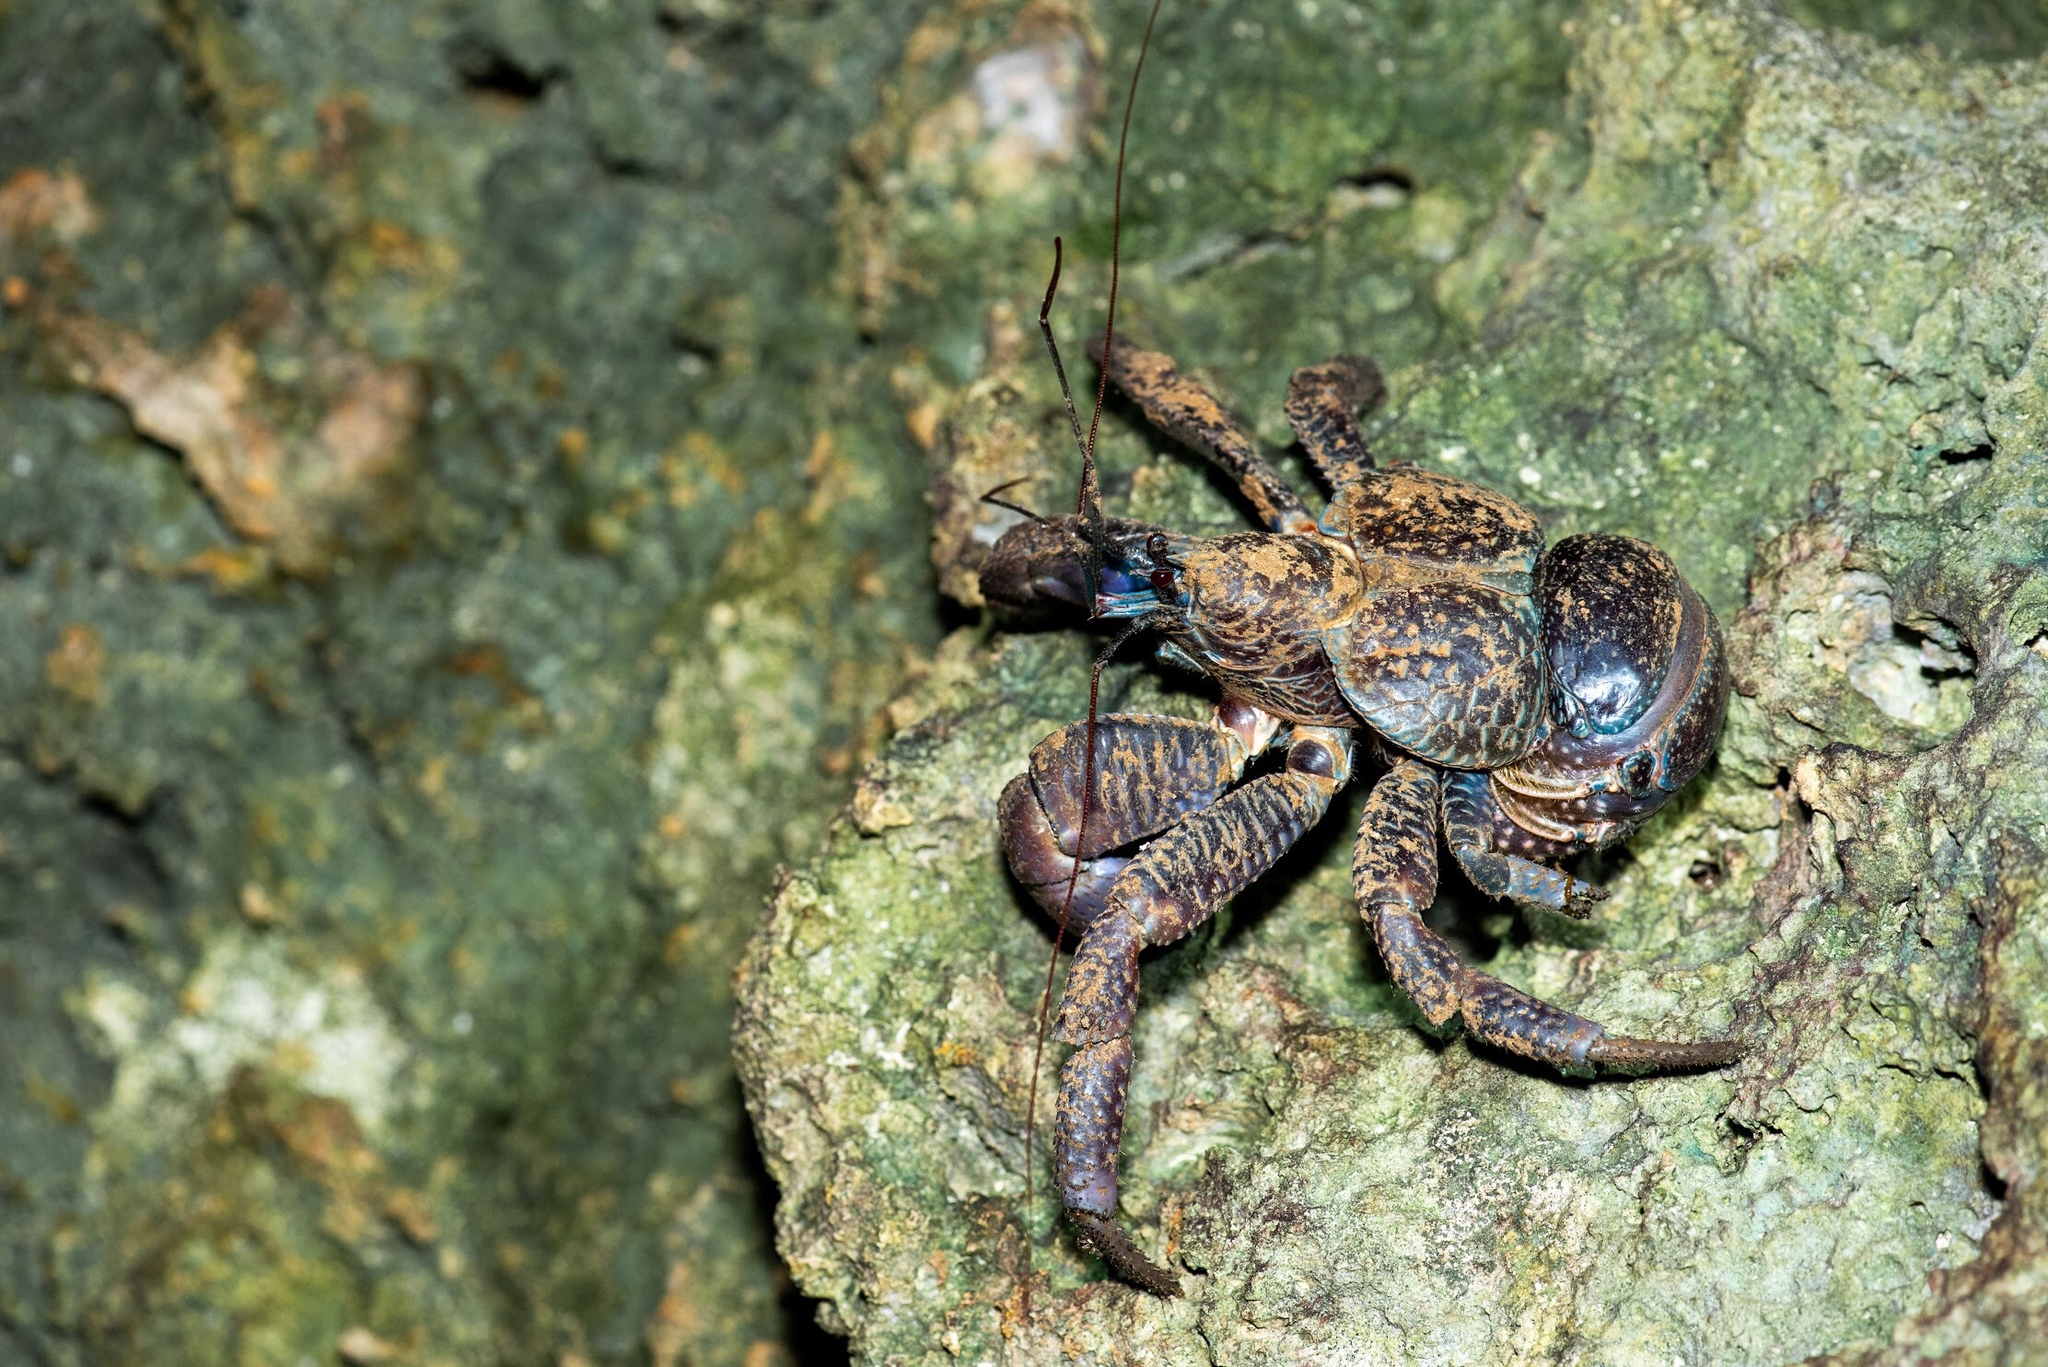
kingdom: Animalia
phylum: Arthropoda
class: Malacostraca
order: Decapoda
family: Coenobitidae
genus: Birgus
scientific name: Birgus latro
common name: Coconut crab
